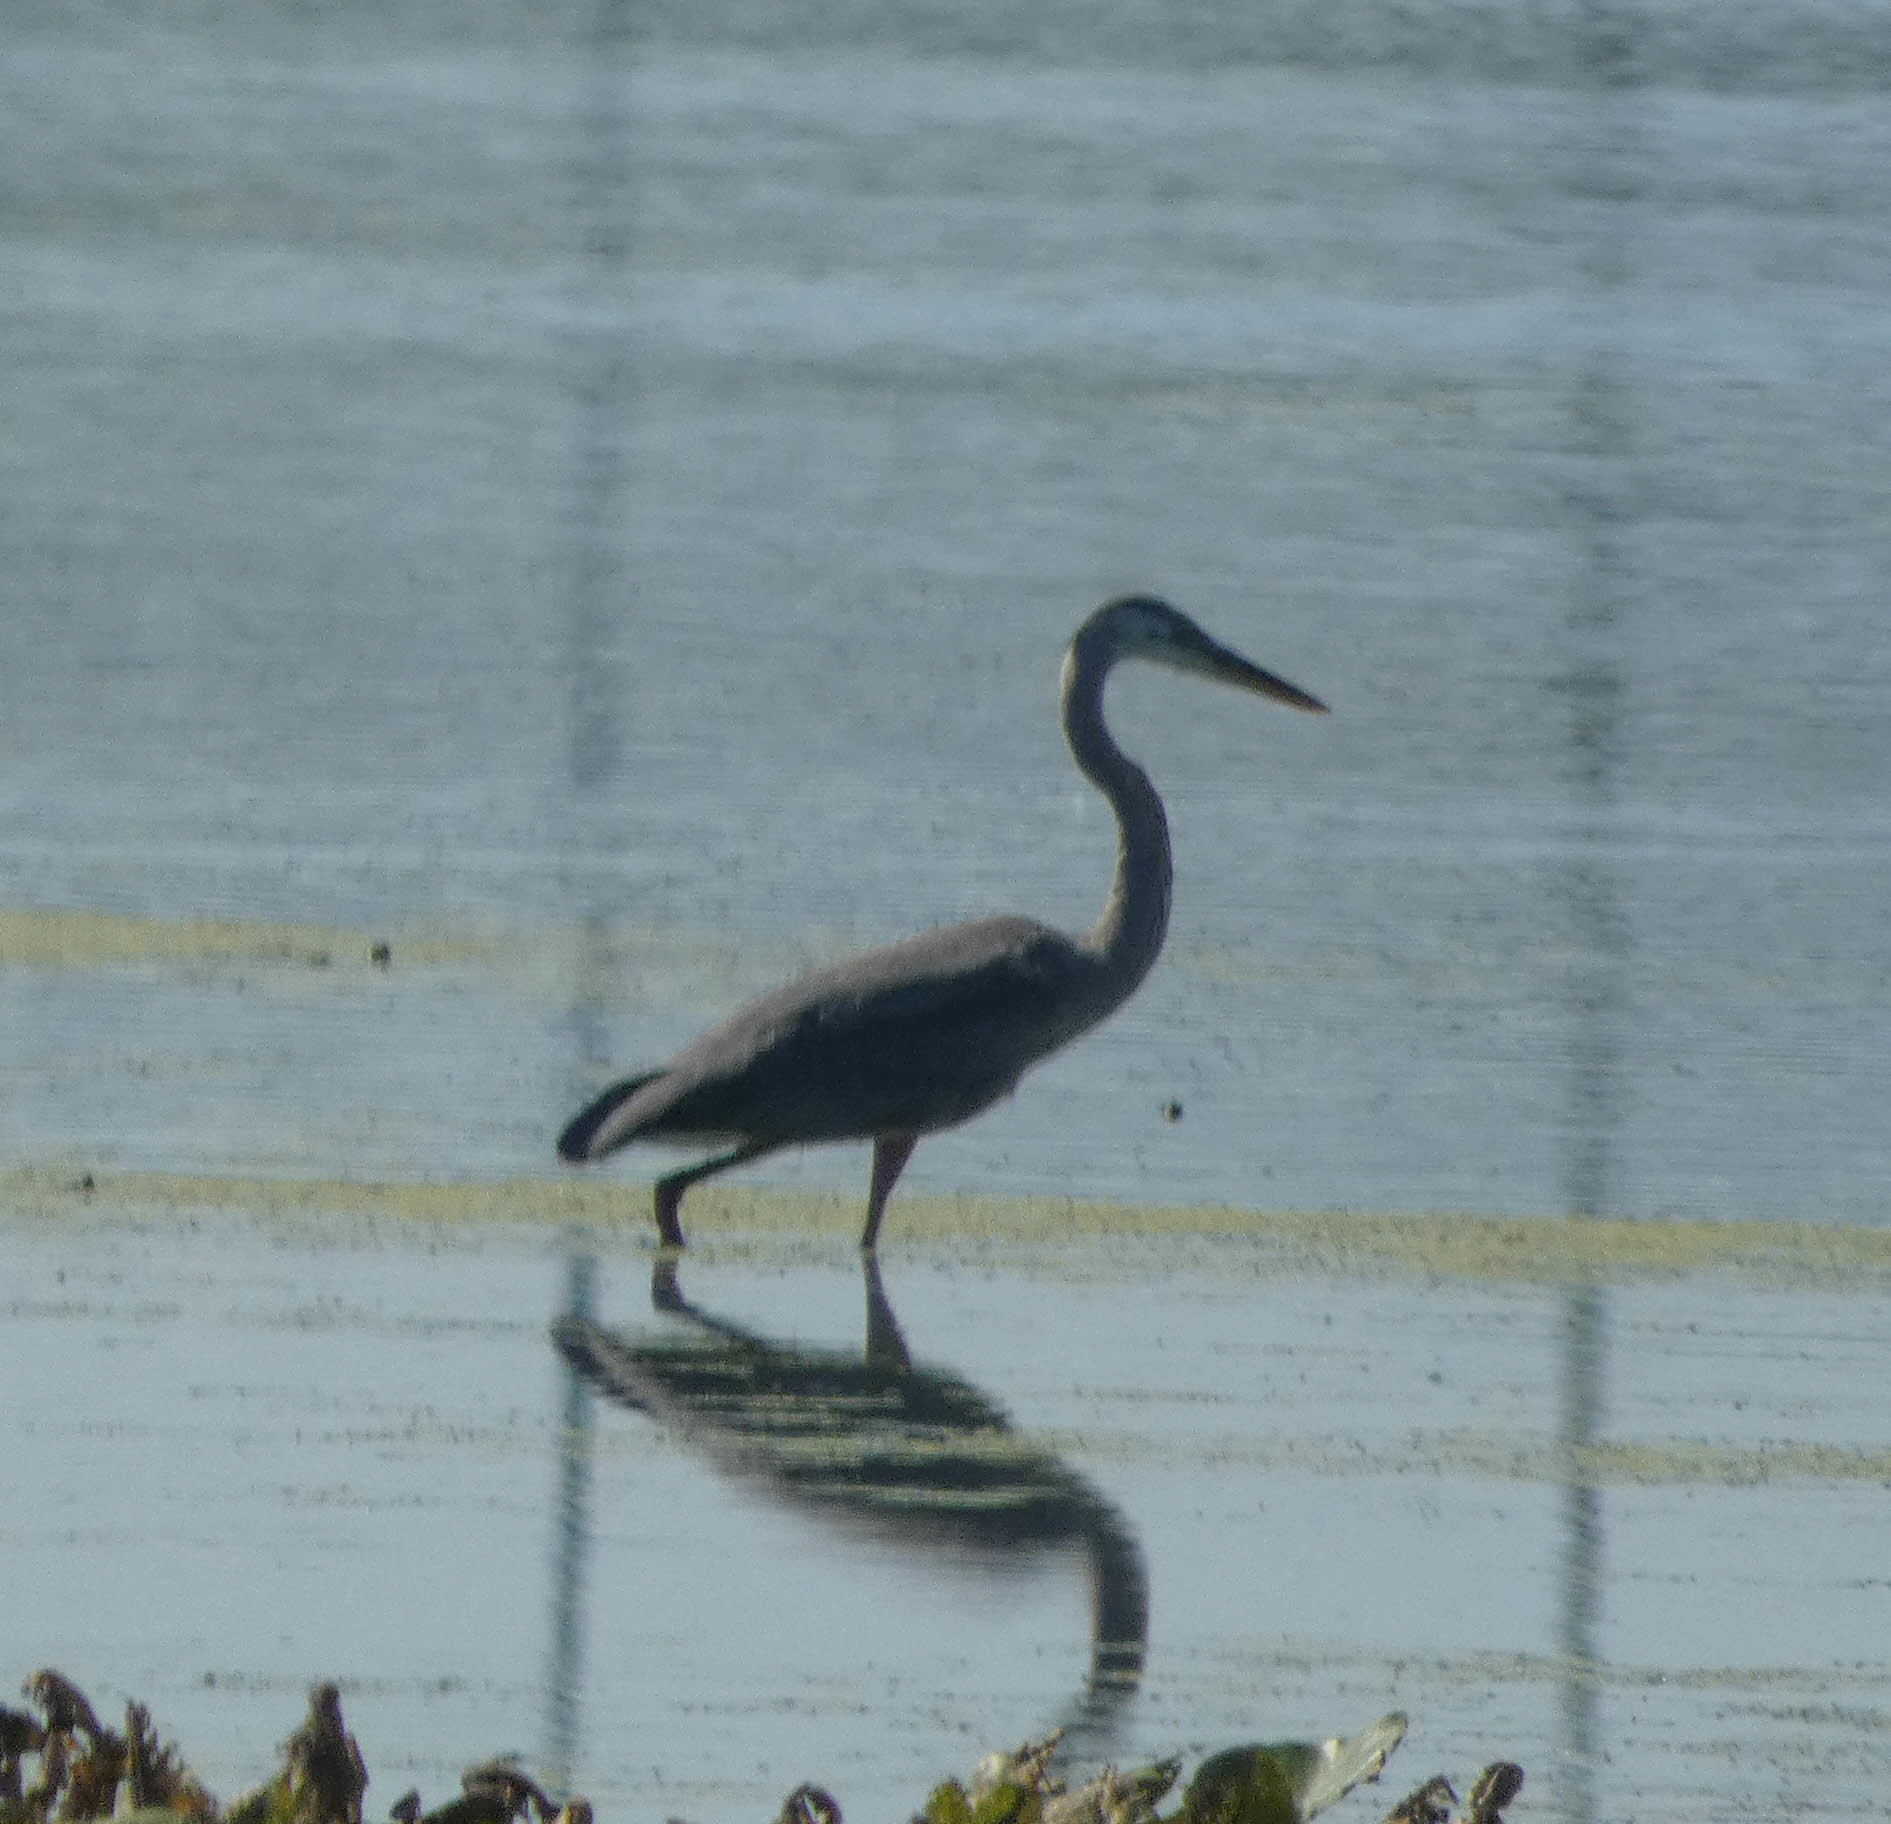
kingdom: Animalia
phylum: Chordata
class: Aves
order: Pelecaniformes
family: Ardeidae
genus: Ardea
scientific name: Ardea herodias
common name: Great blue heron
